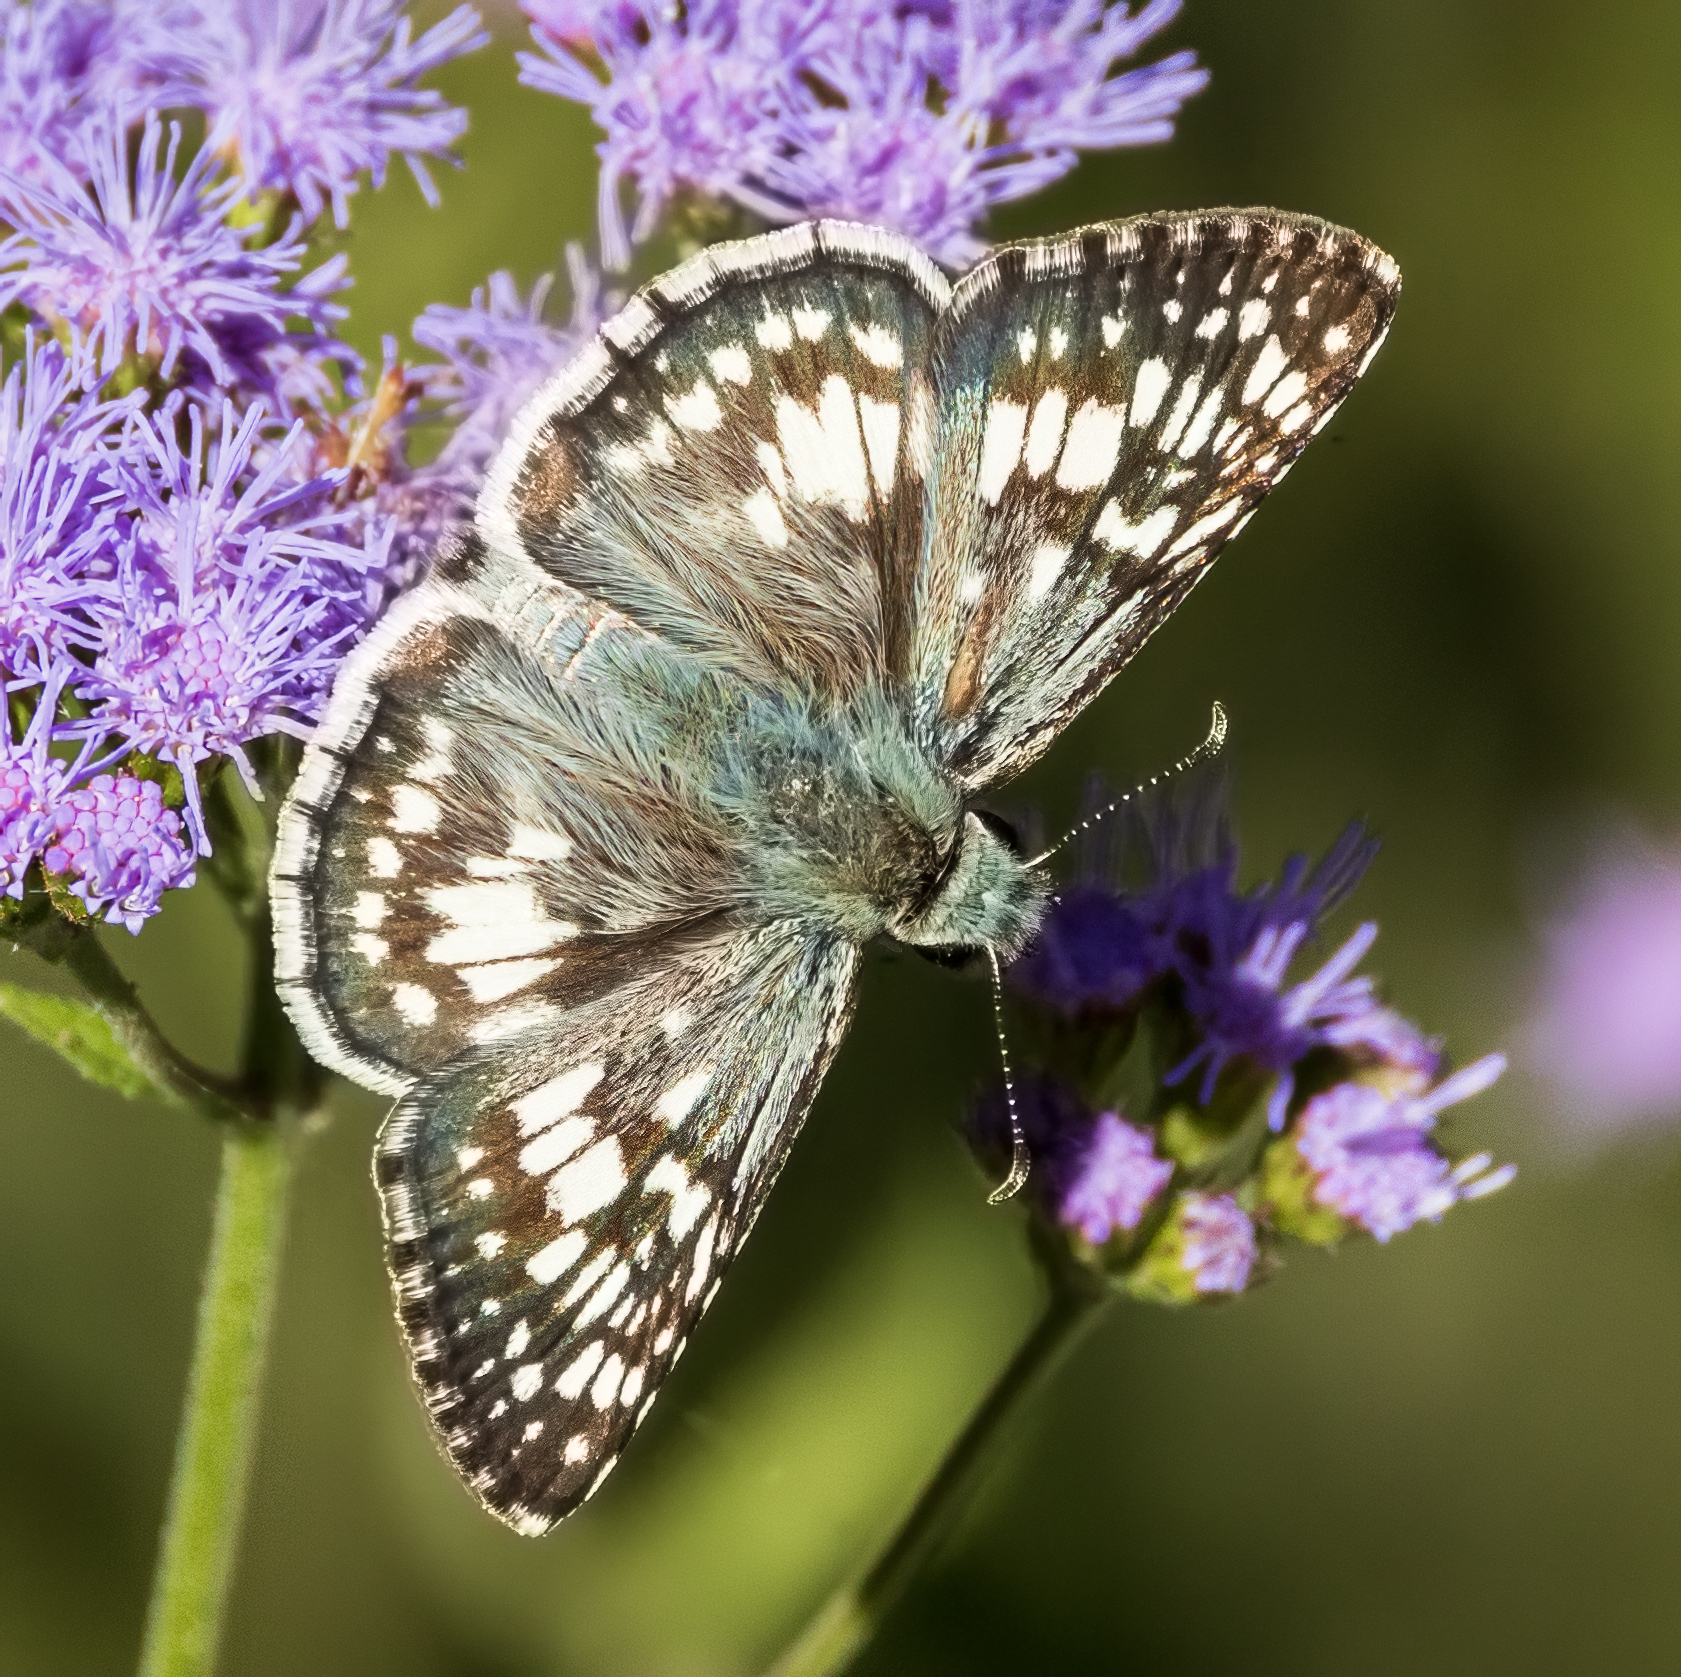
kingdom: Animalia
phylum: Arthropoda
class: Insecta
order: Lepidoptera
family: Hesperiidae
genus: Burnsius
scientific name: Burnsius communis
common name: Common checkered-skipper
